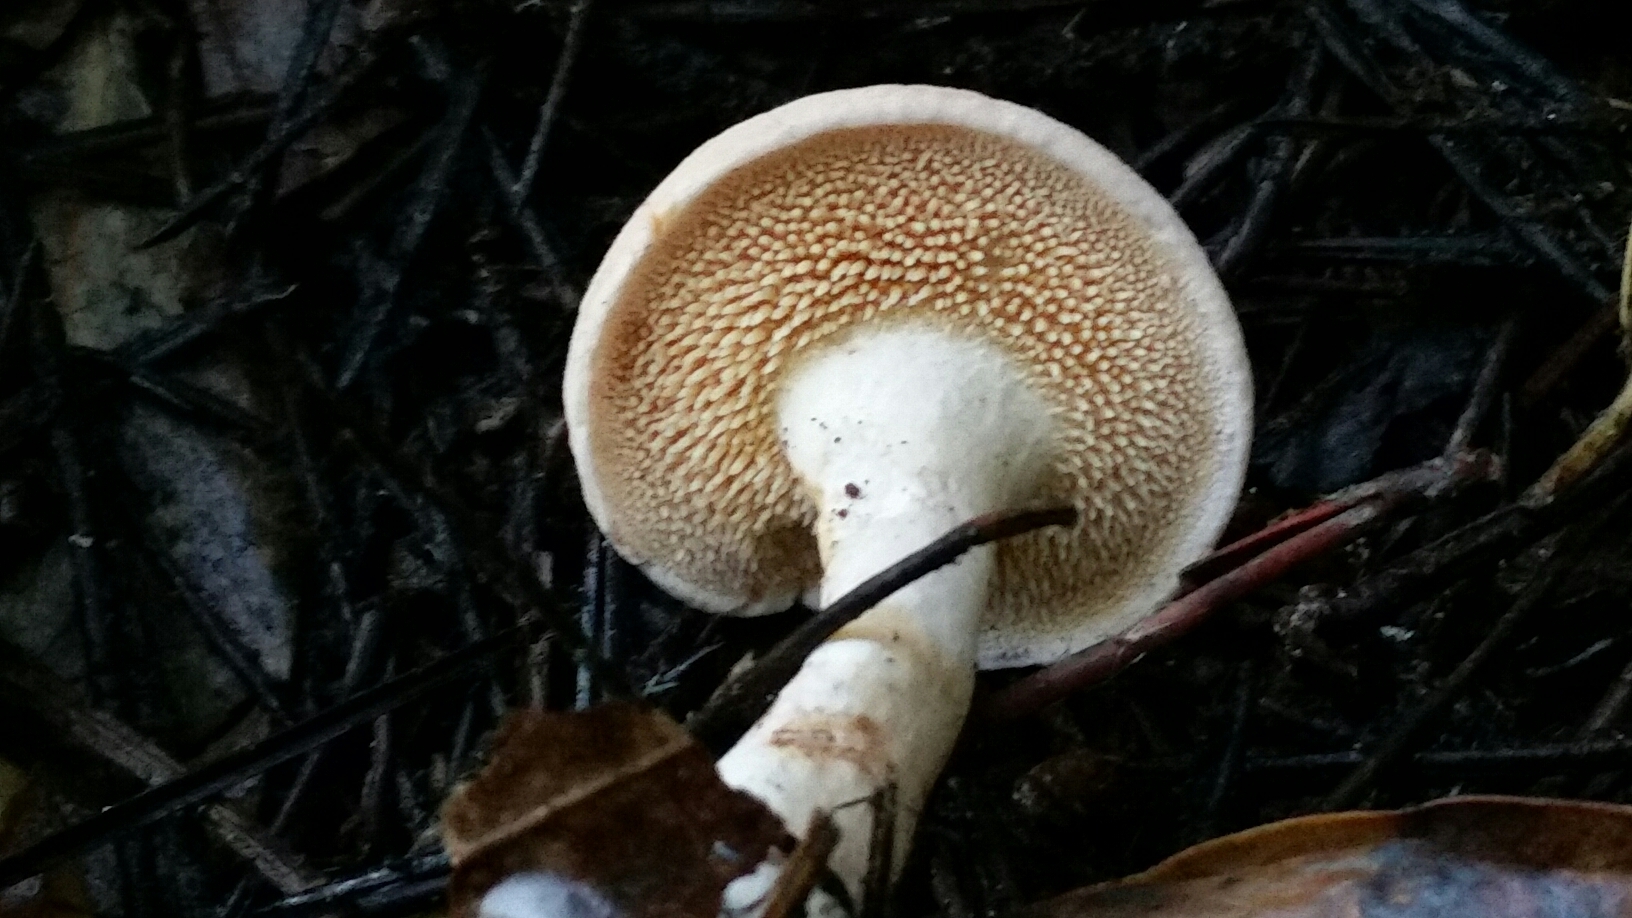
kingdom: Fungi
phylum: Basidiomycota
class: Agaricomycetes
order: Cantharellales
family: Hydnaceae
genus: Hydnum
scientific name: Hydnum oregonense
